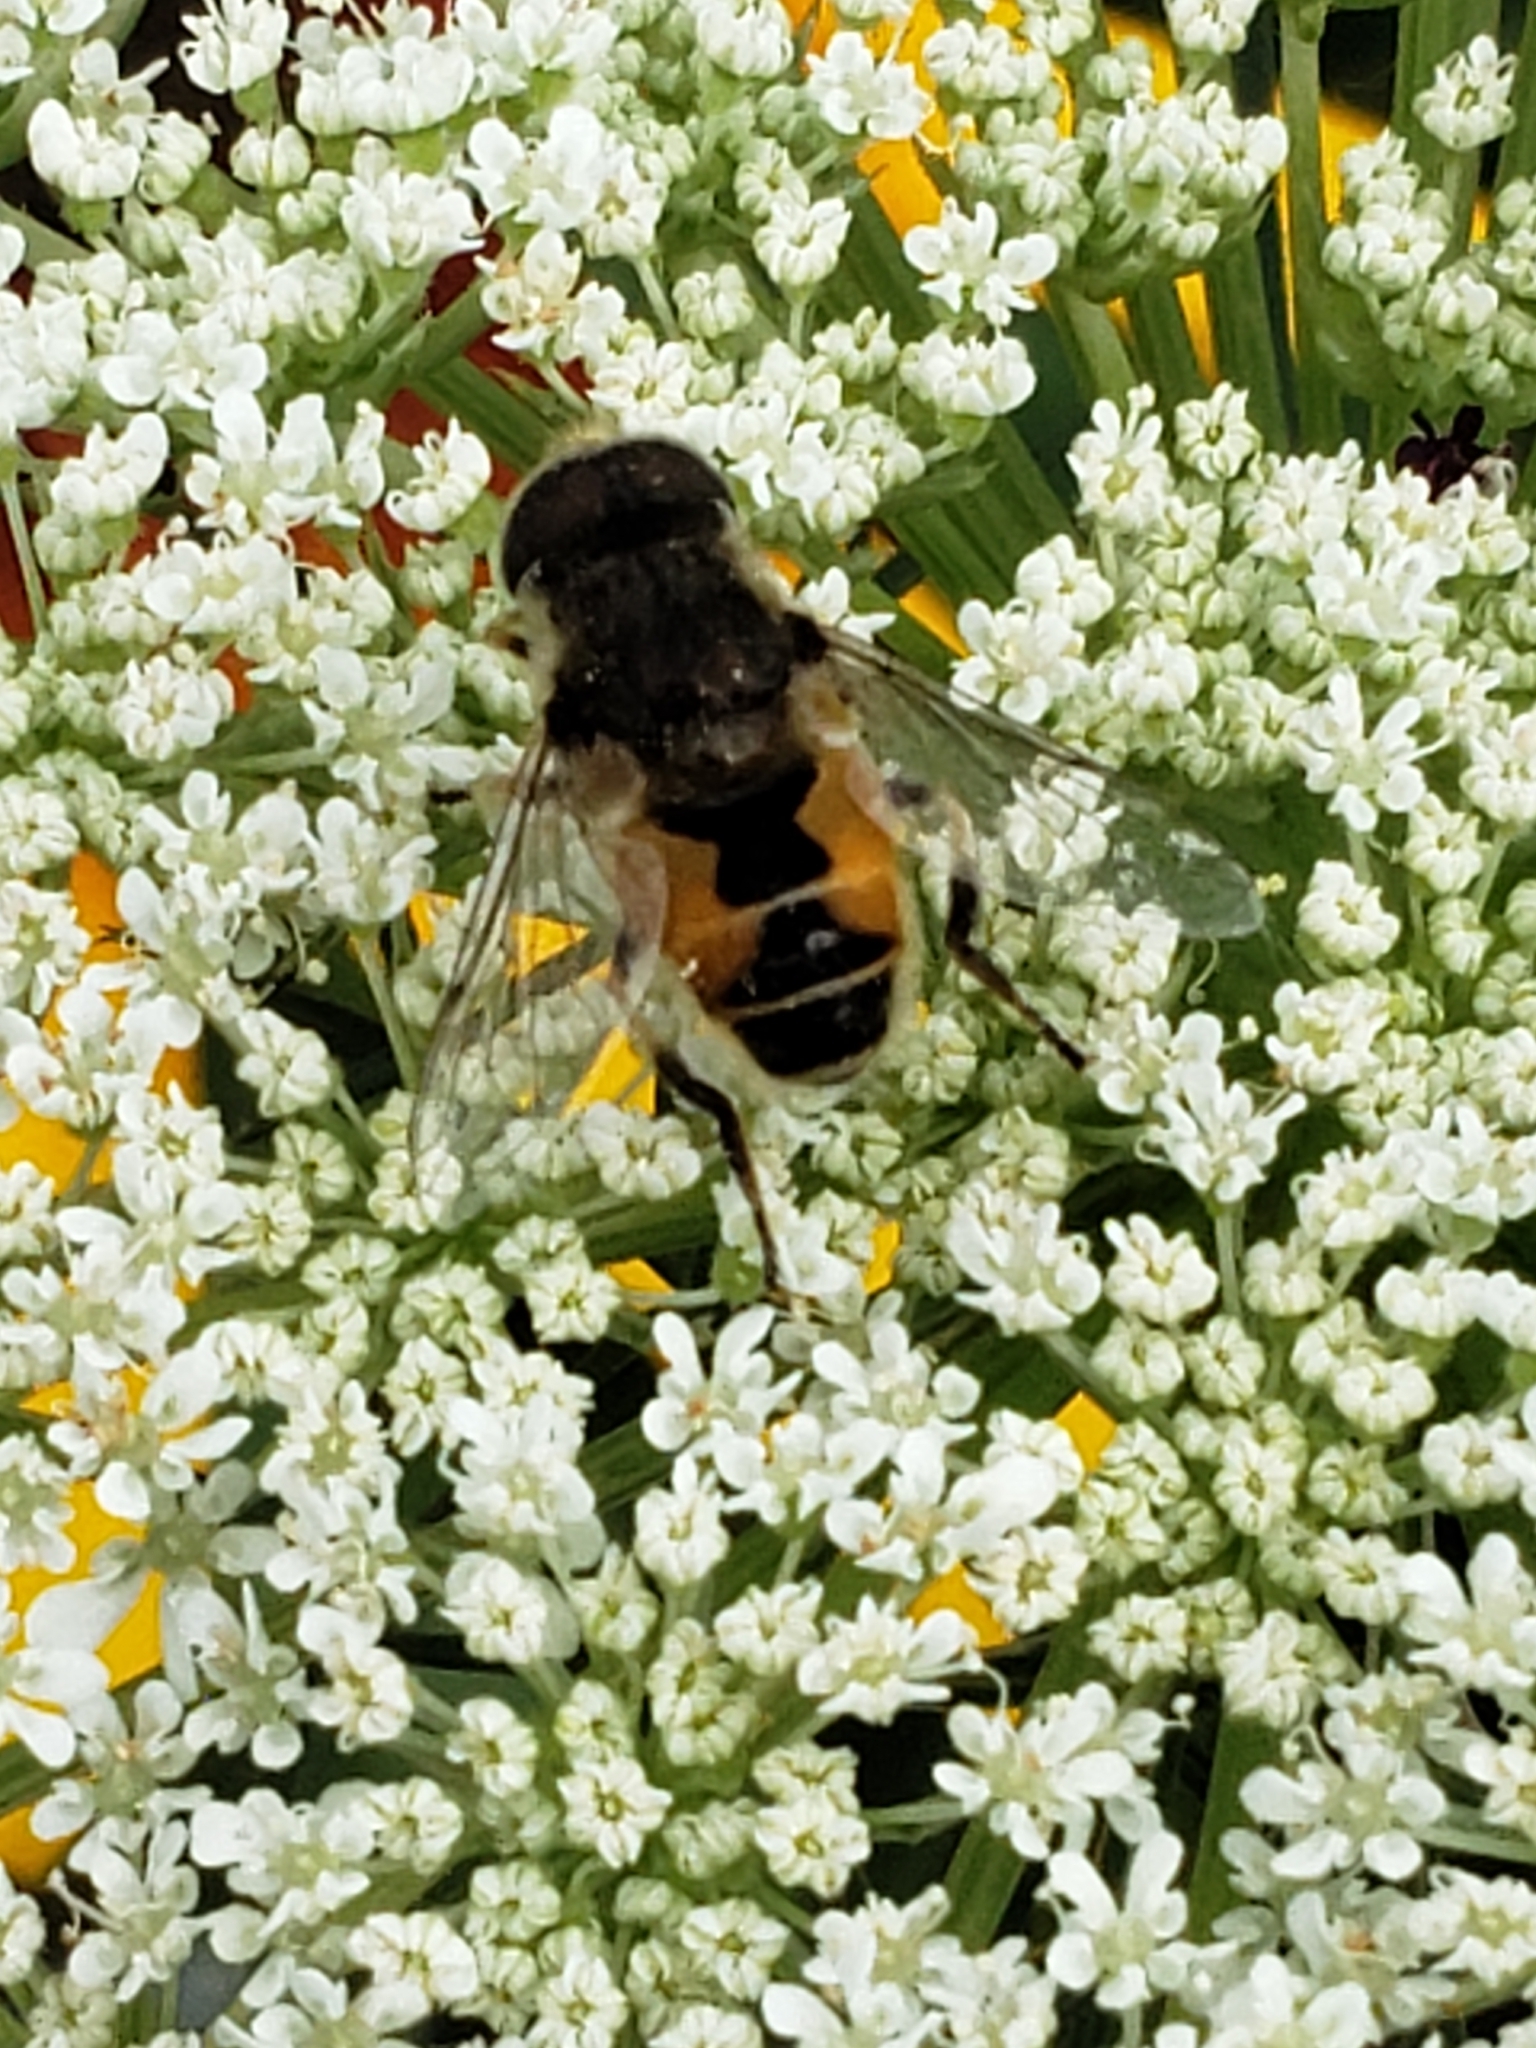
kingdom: Animalia
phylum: Arthropoda
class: Insecta
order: Diptera
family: Syrphidae
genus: Eristalis
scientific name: Eristalis arbustorum
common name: Hover fly
